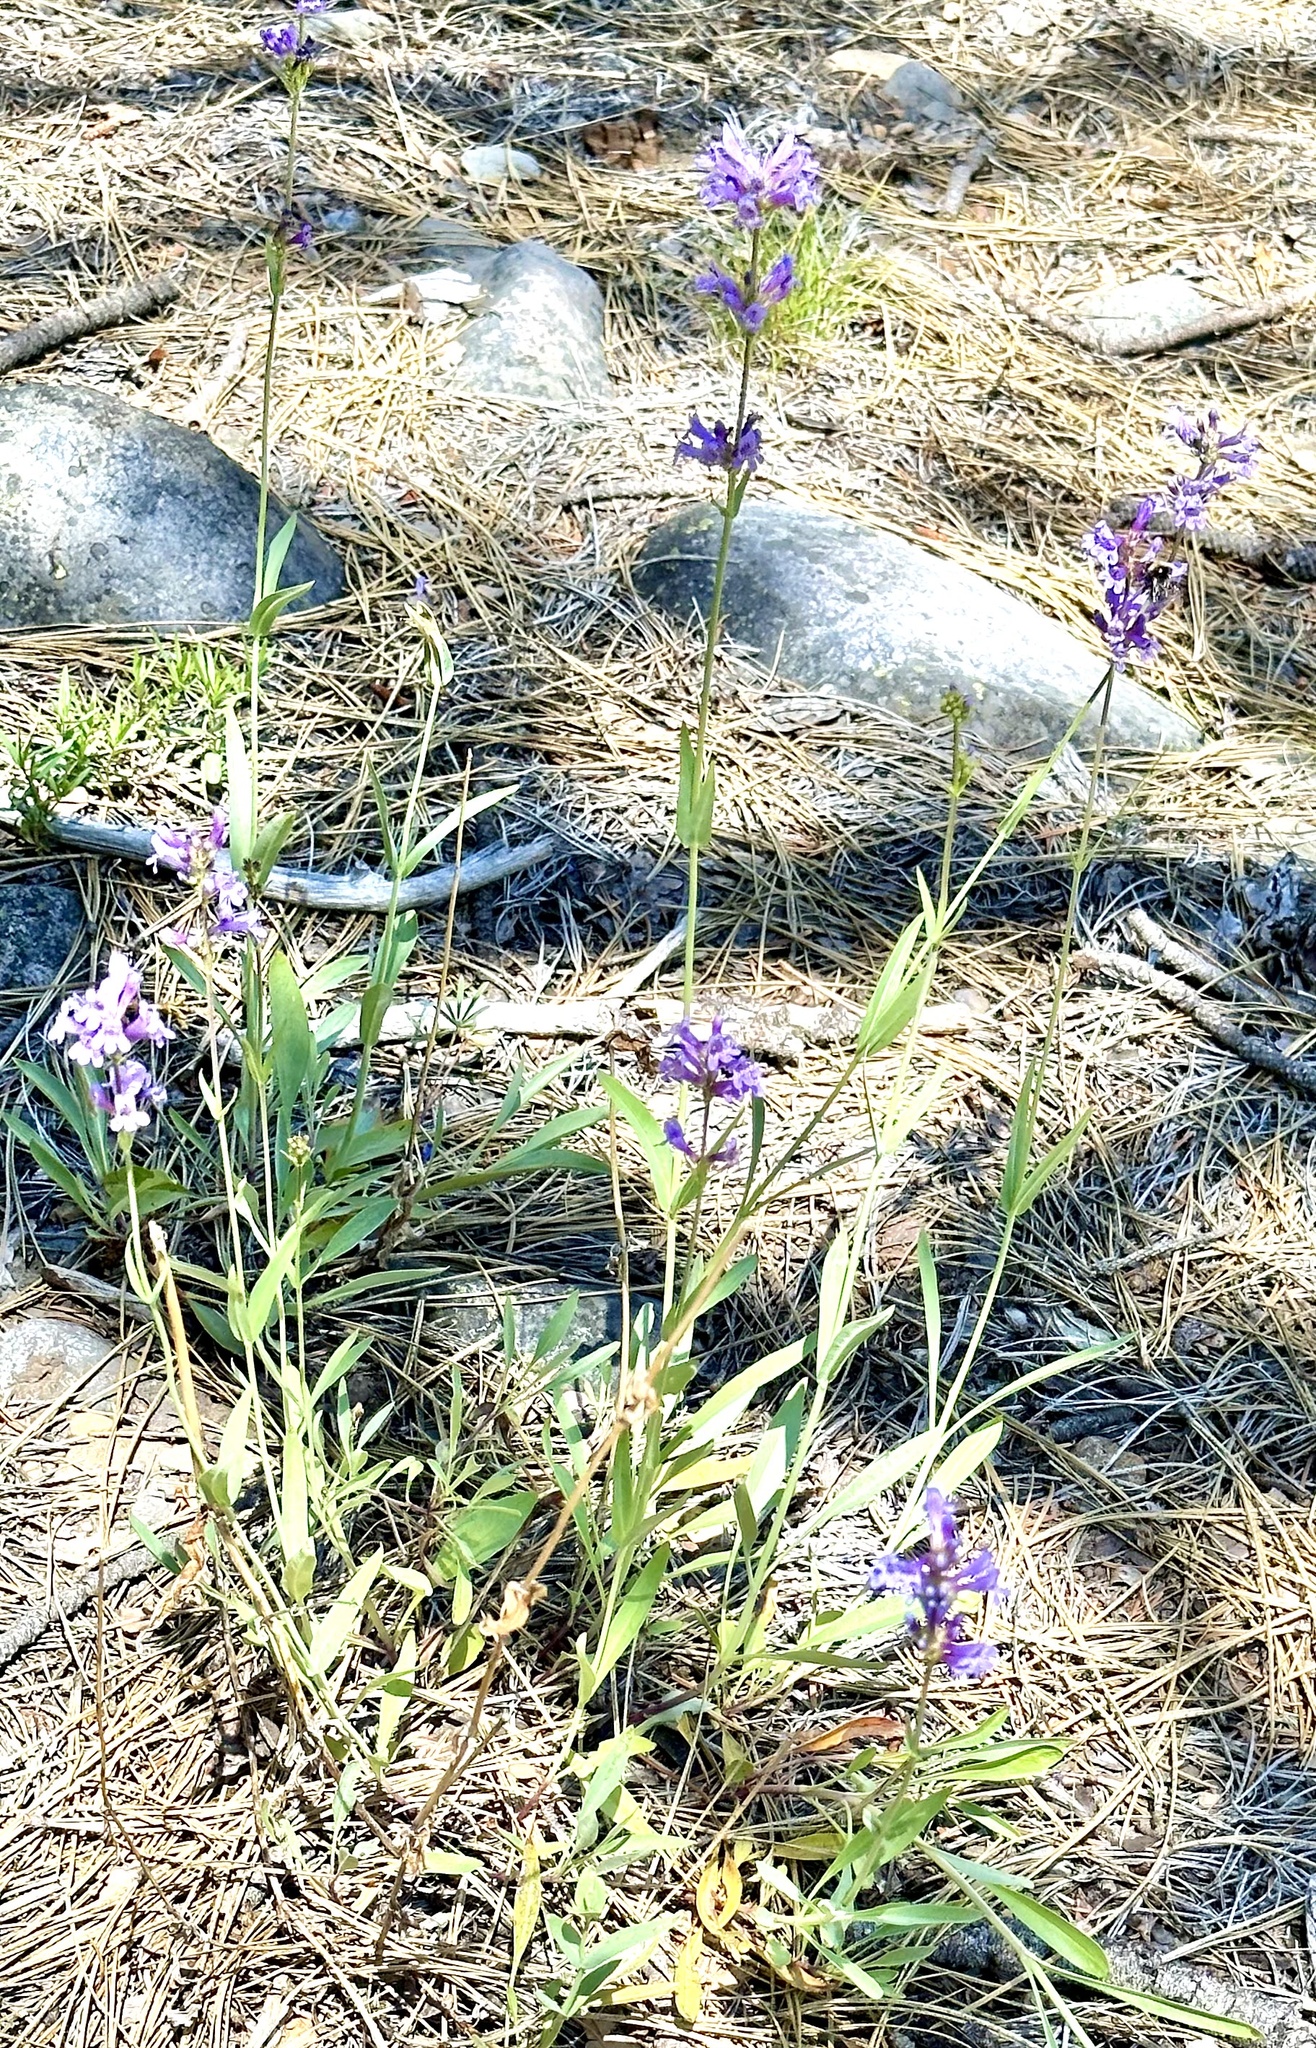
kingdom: Plantae
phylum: Tracheophyta
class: Magnoliopsida
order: Lamiales
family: Plantaginaceae
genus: Penstemon
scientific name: Penstemon euglaucus
